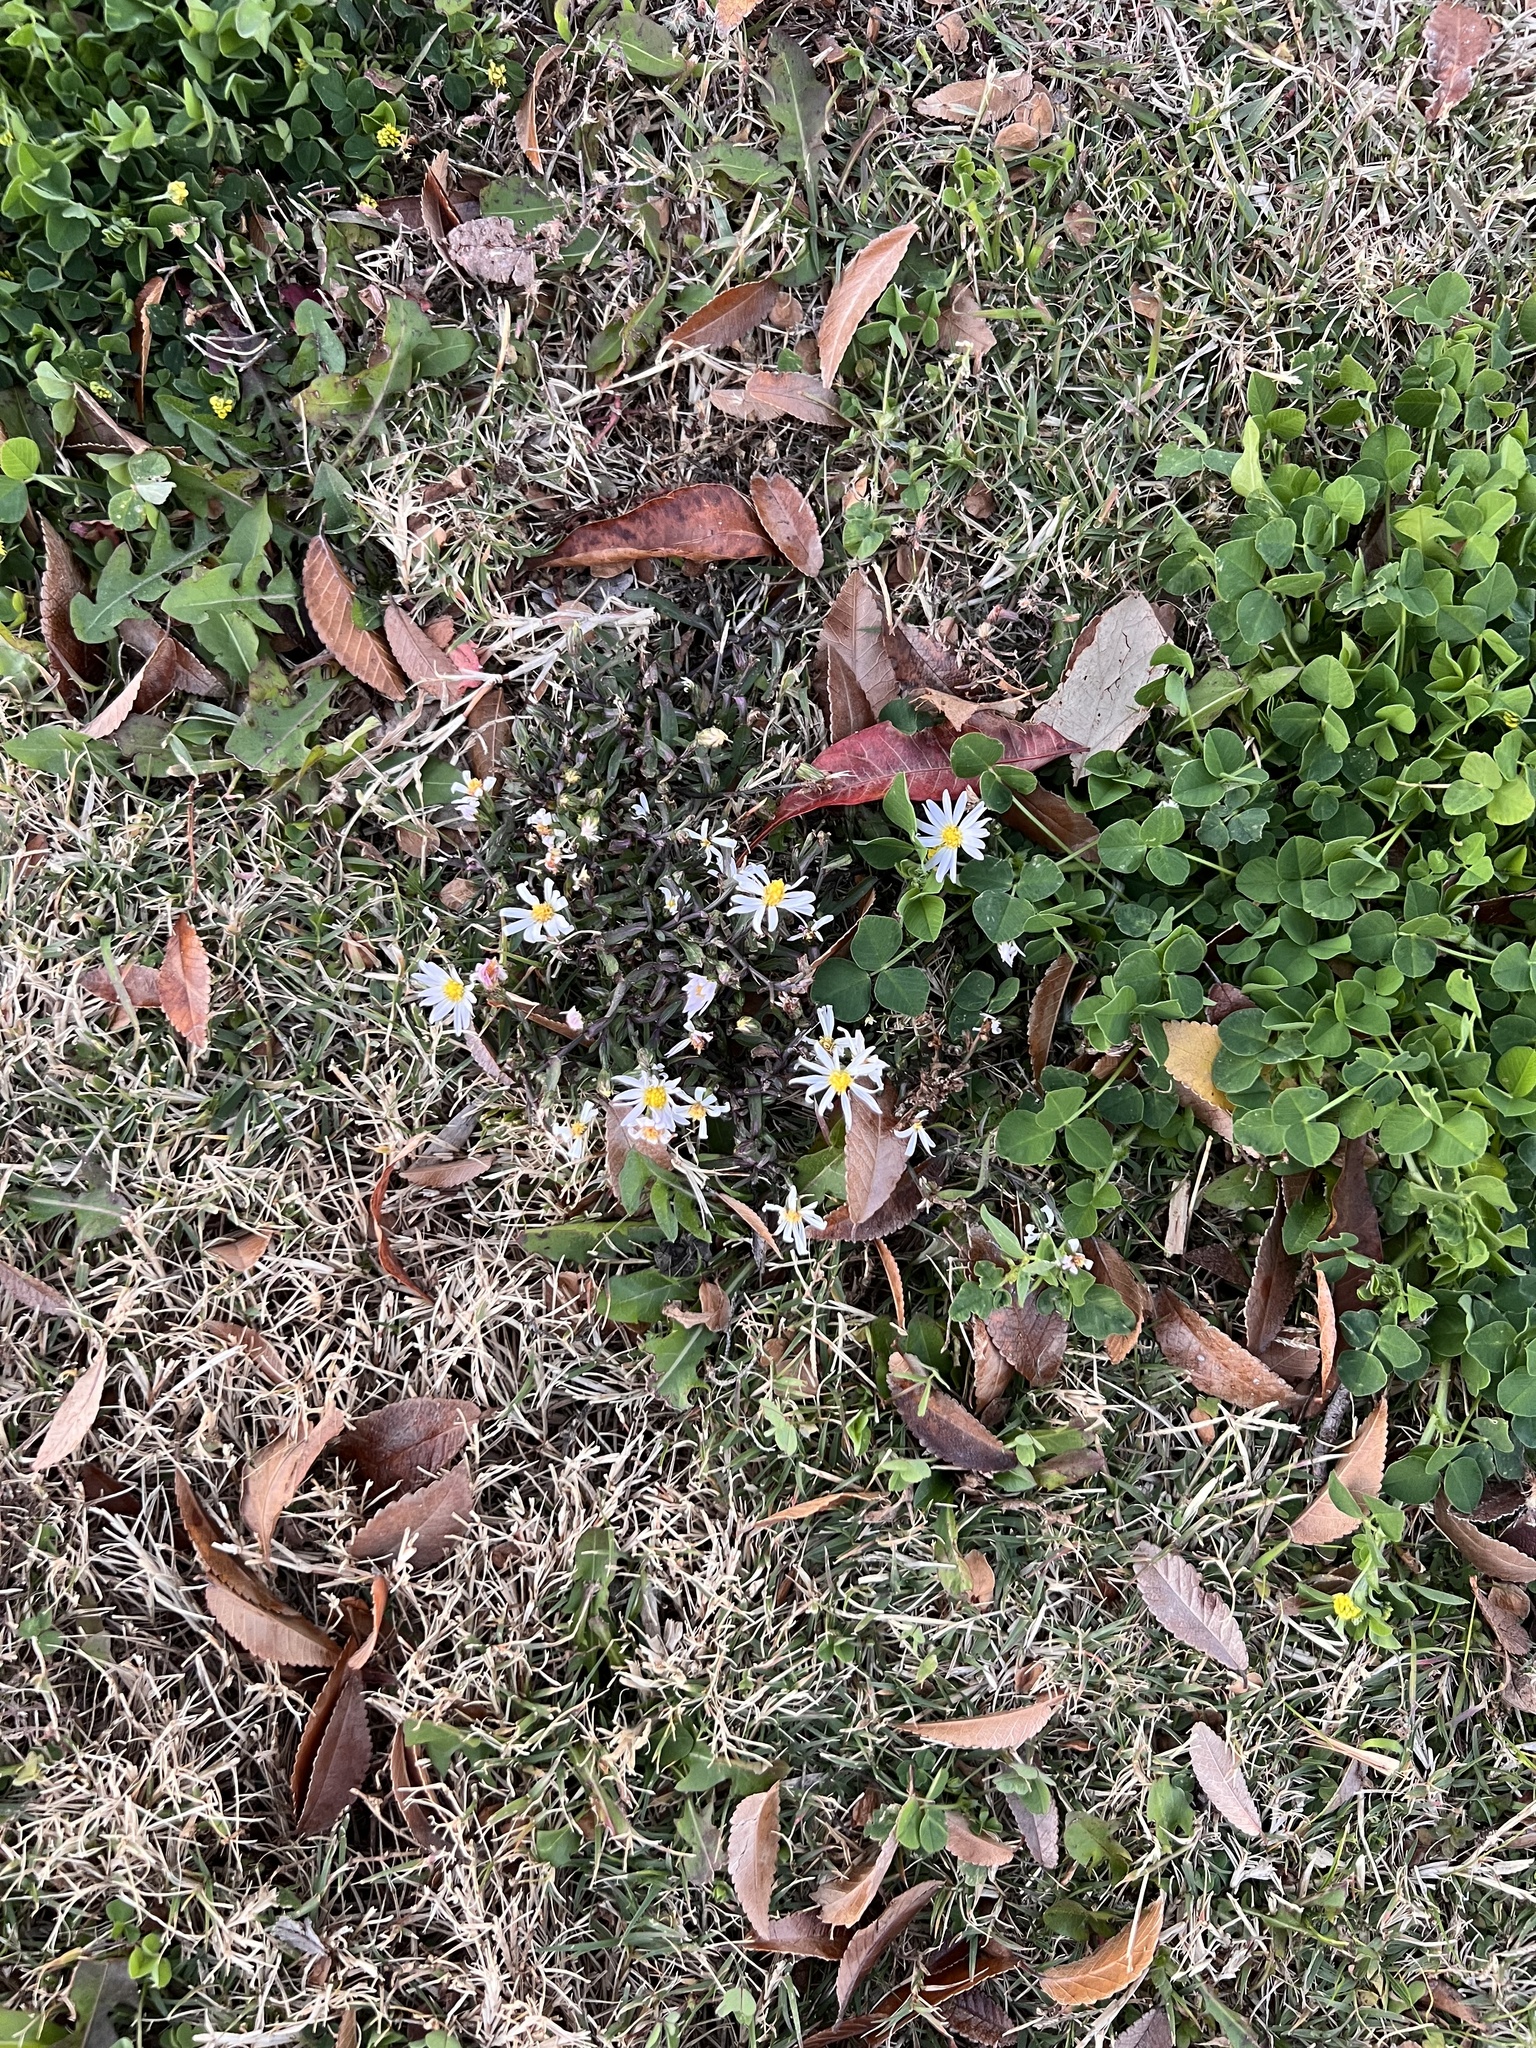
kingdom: Plantae
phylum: Tracheophyta
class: Magnoliopsida
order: Asterales
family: Asteraceae
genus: Symphyotrichum
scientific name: Symphyotrichum divaricatum
